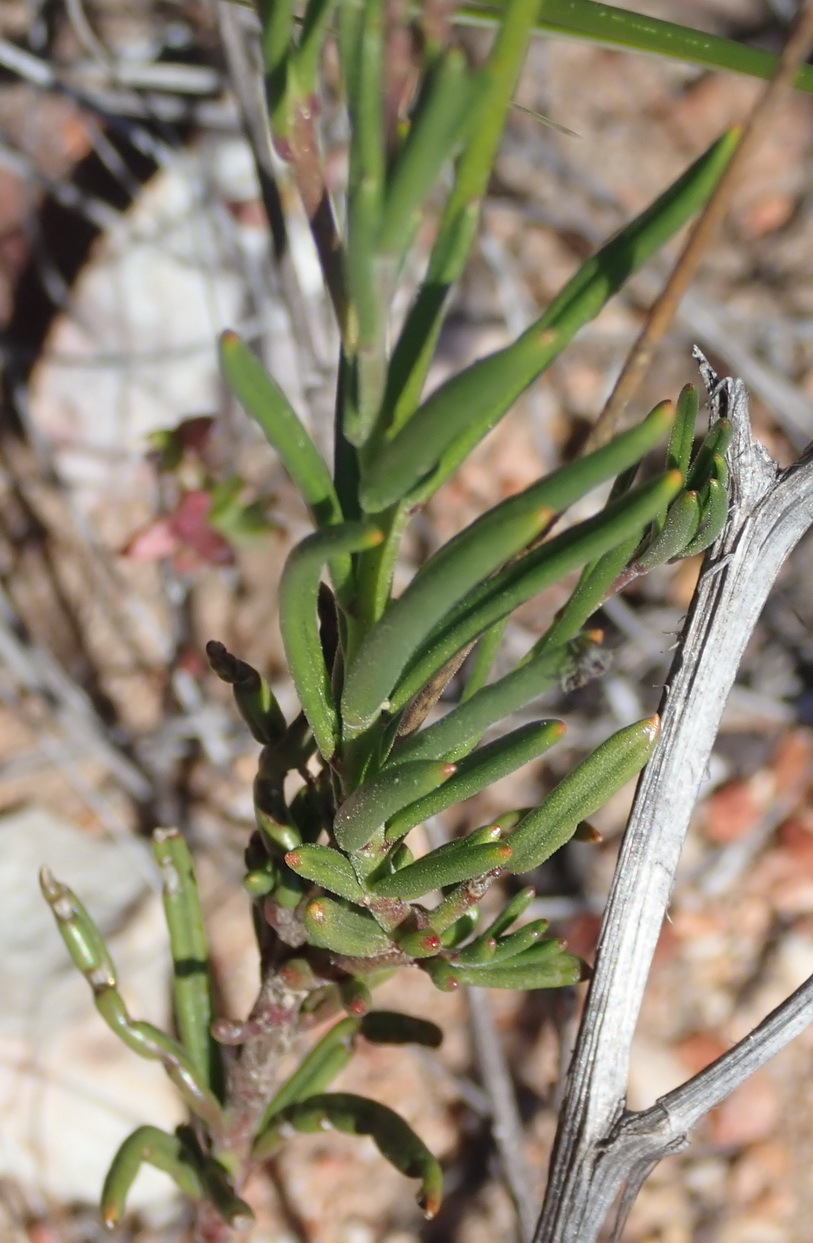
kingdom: Plantae
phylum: Tracheophyta
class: Magnoliopsida
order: Brassicales
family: Brassicaceae
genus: Heliophila
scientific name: Heliophila subulata
